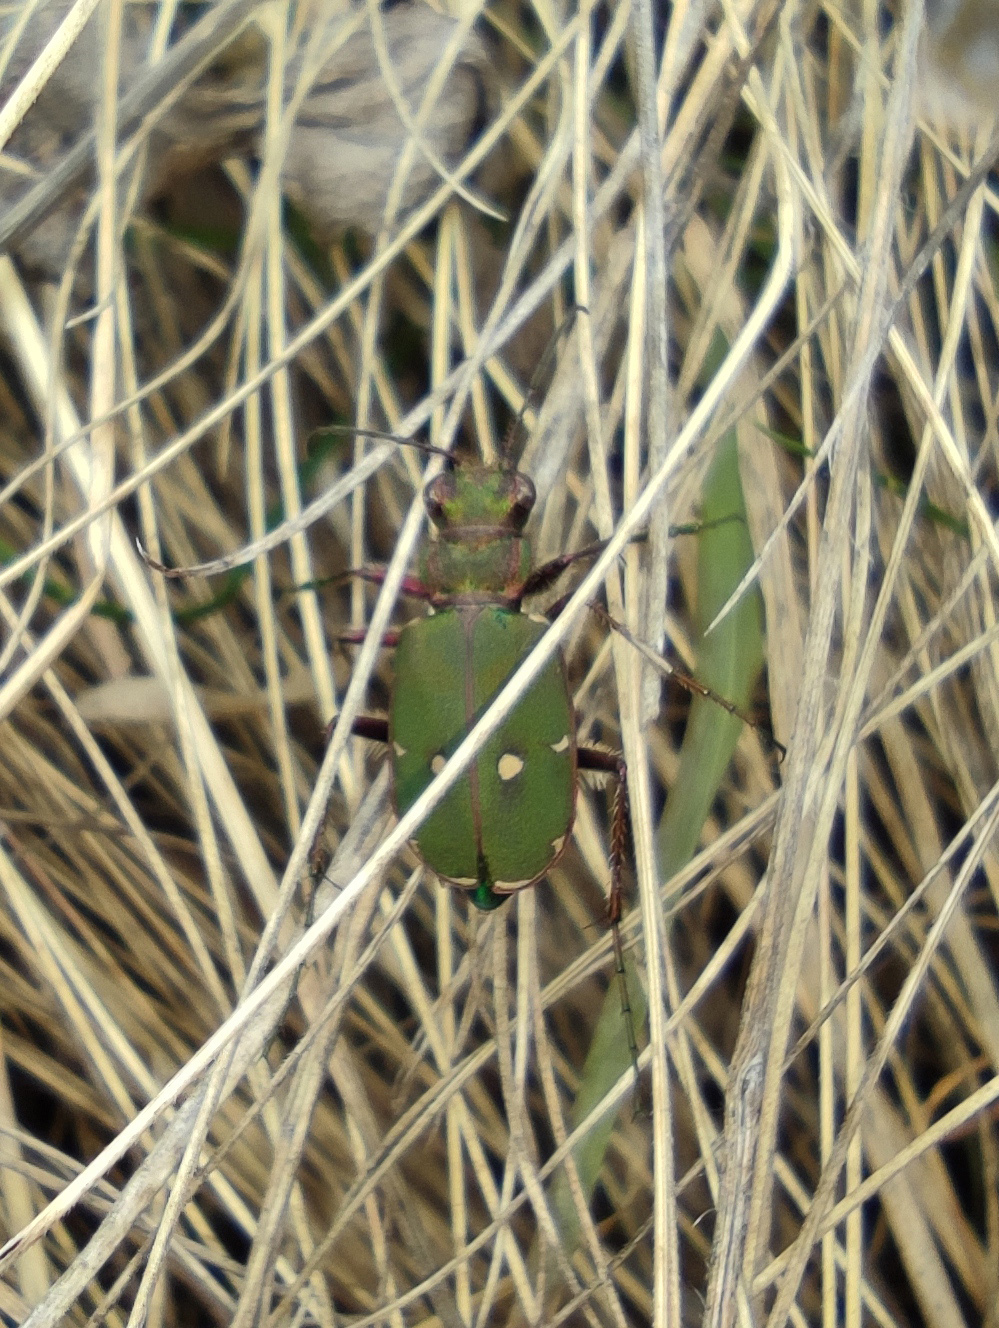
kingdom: Animalia
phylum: Arthropoda
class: Insecta
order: Coleoptera
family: Carabidae
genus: Cicindela
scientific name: Cicindela campestris
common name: Common tiger beetle
